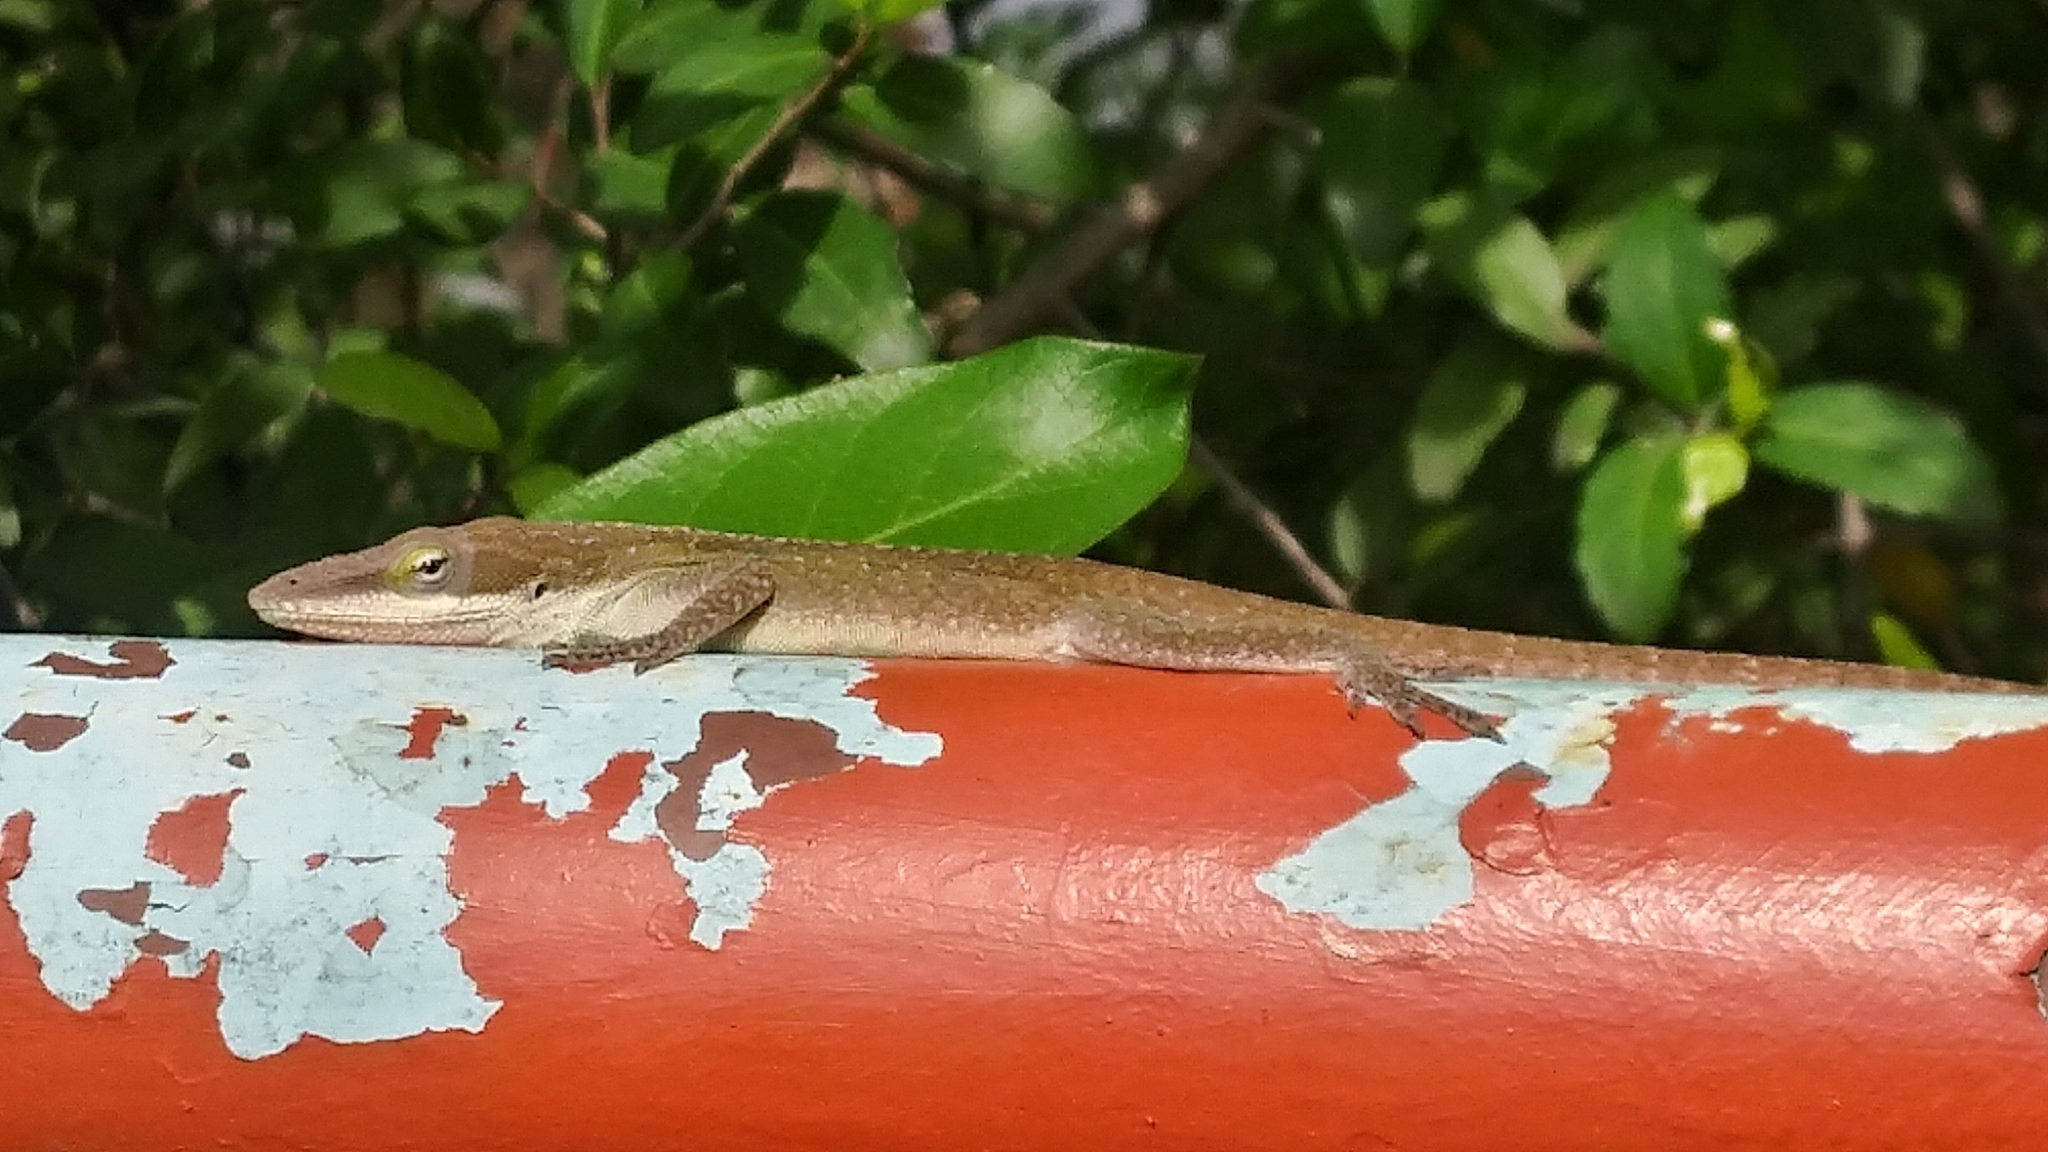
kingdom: Animalia
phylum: Chordata
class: Squamata
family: Dactyloidae
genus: Anolis
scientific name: Anolis carolinensis
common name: Green anole
